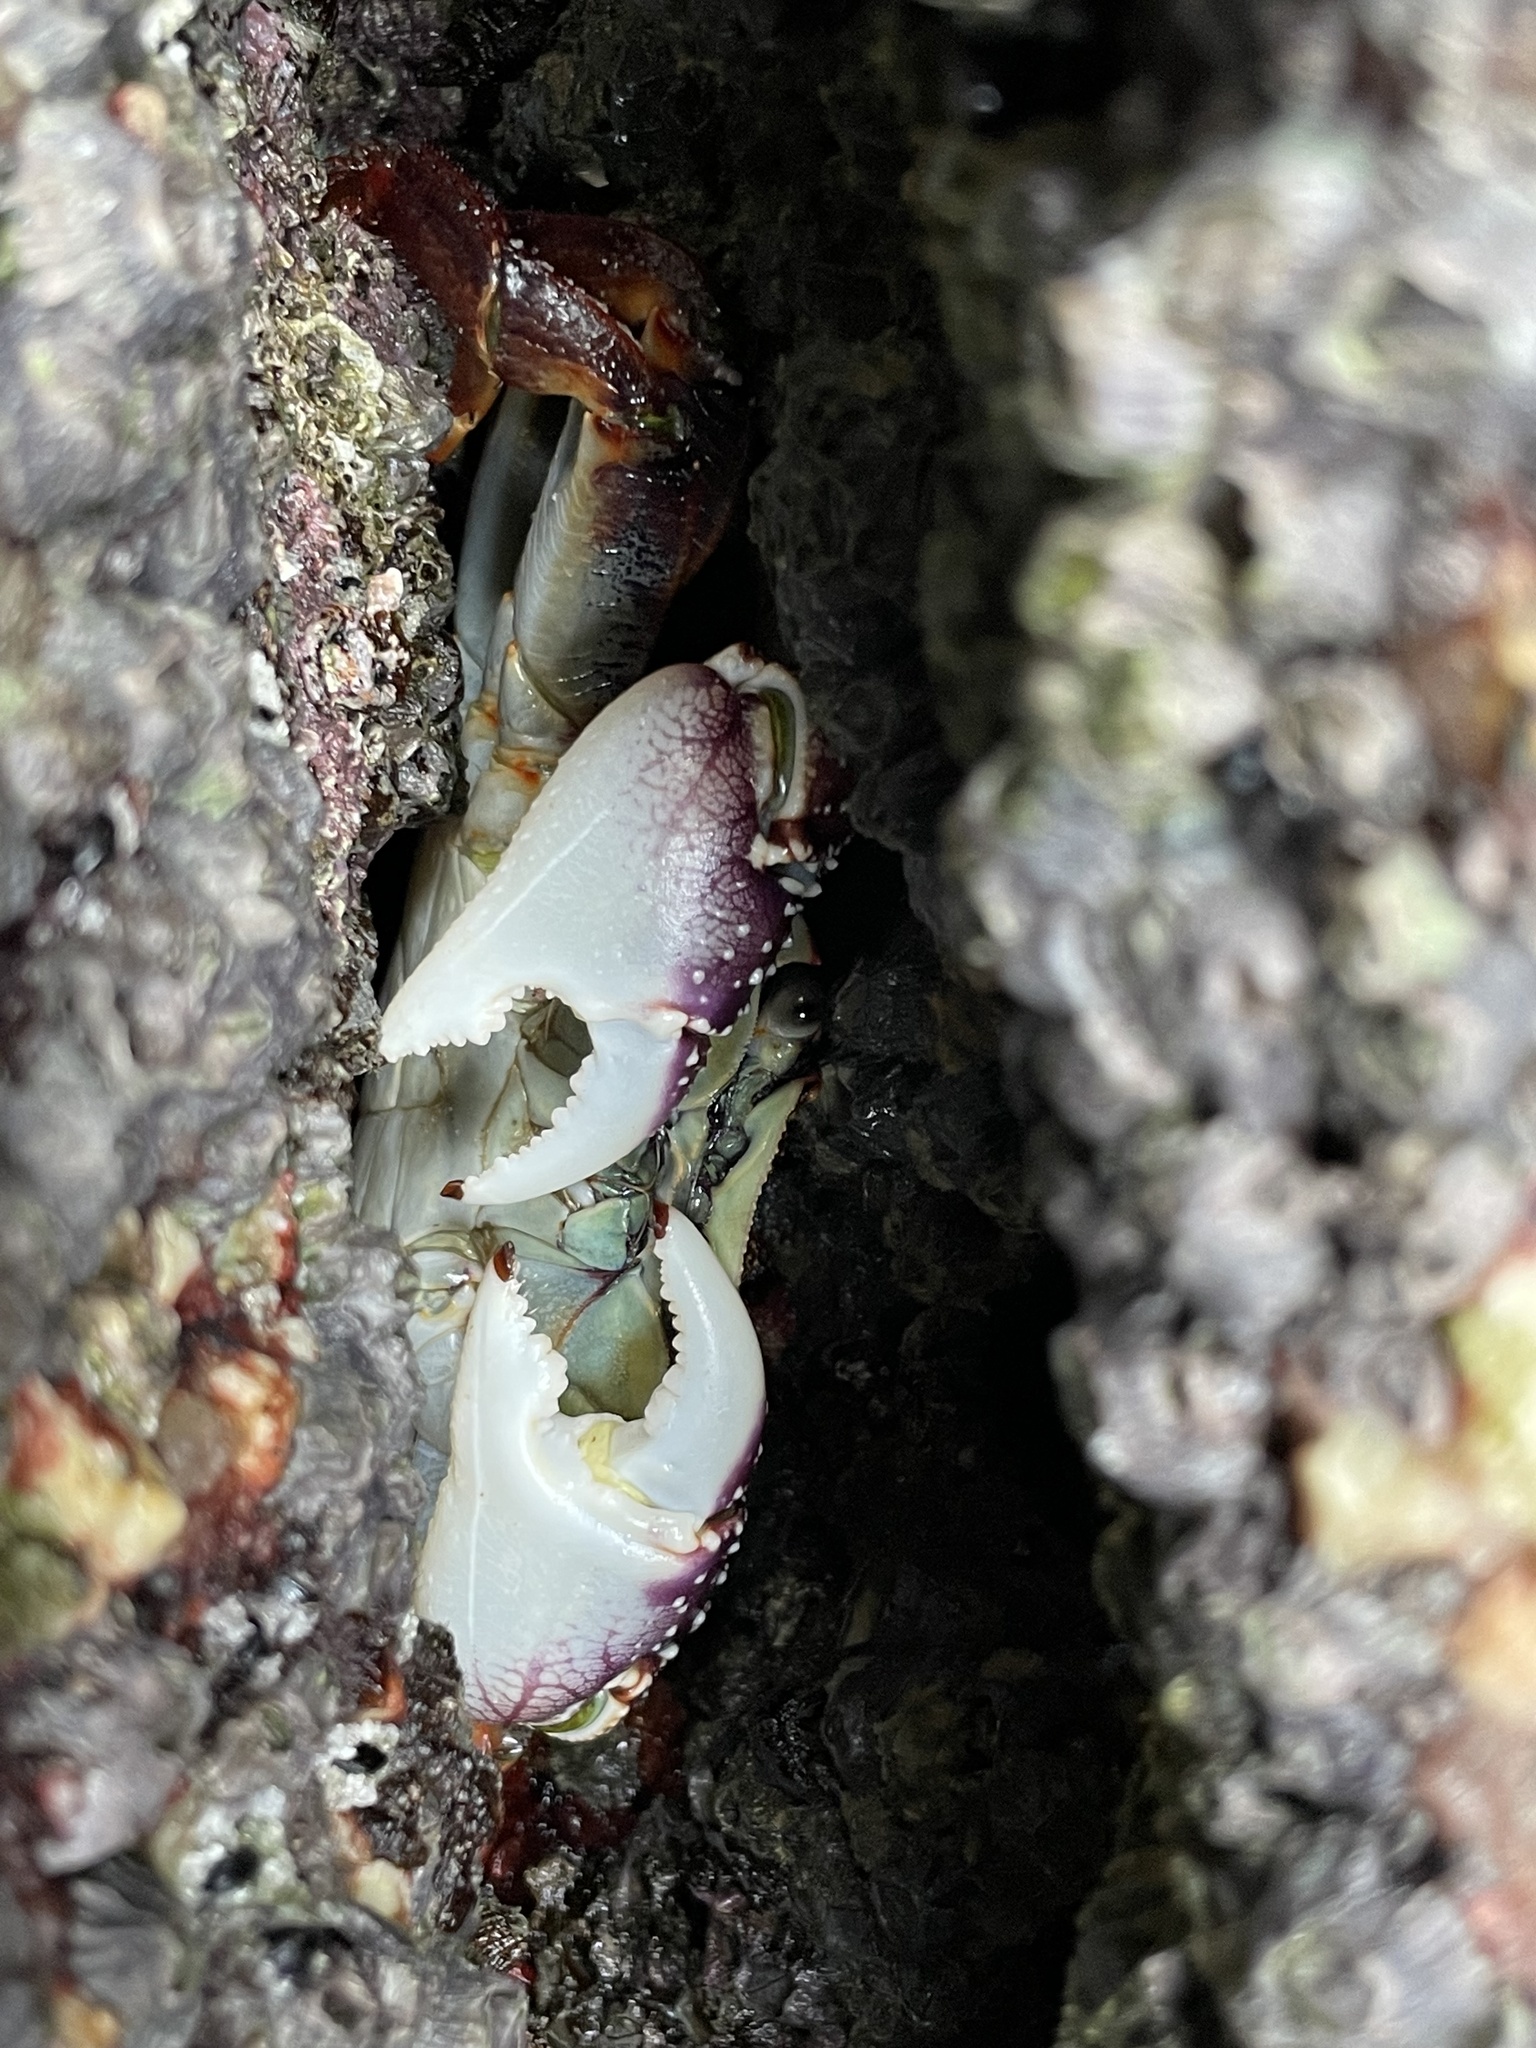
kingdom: Animalia
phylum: Arthropoda
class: Malacostraca
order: Decapoda
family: Grapsidae
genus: Leptograpsus
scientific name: Leptograpsus variegatus
